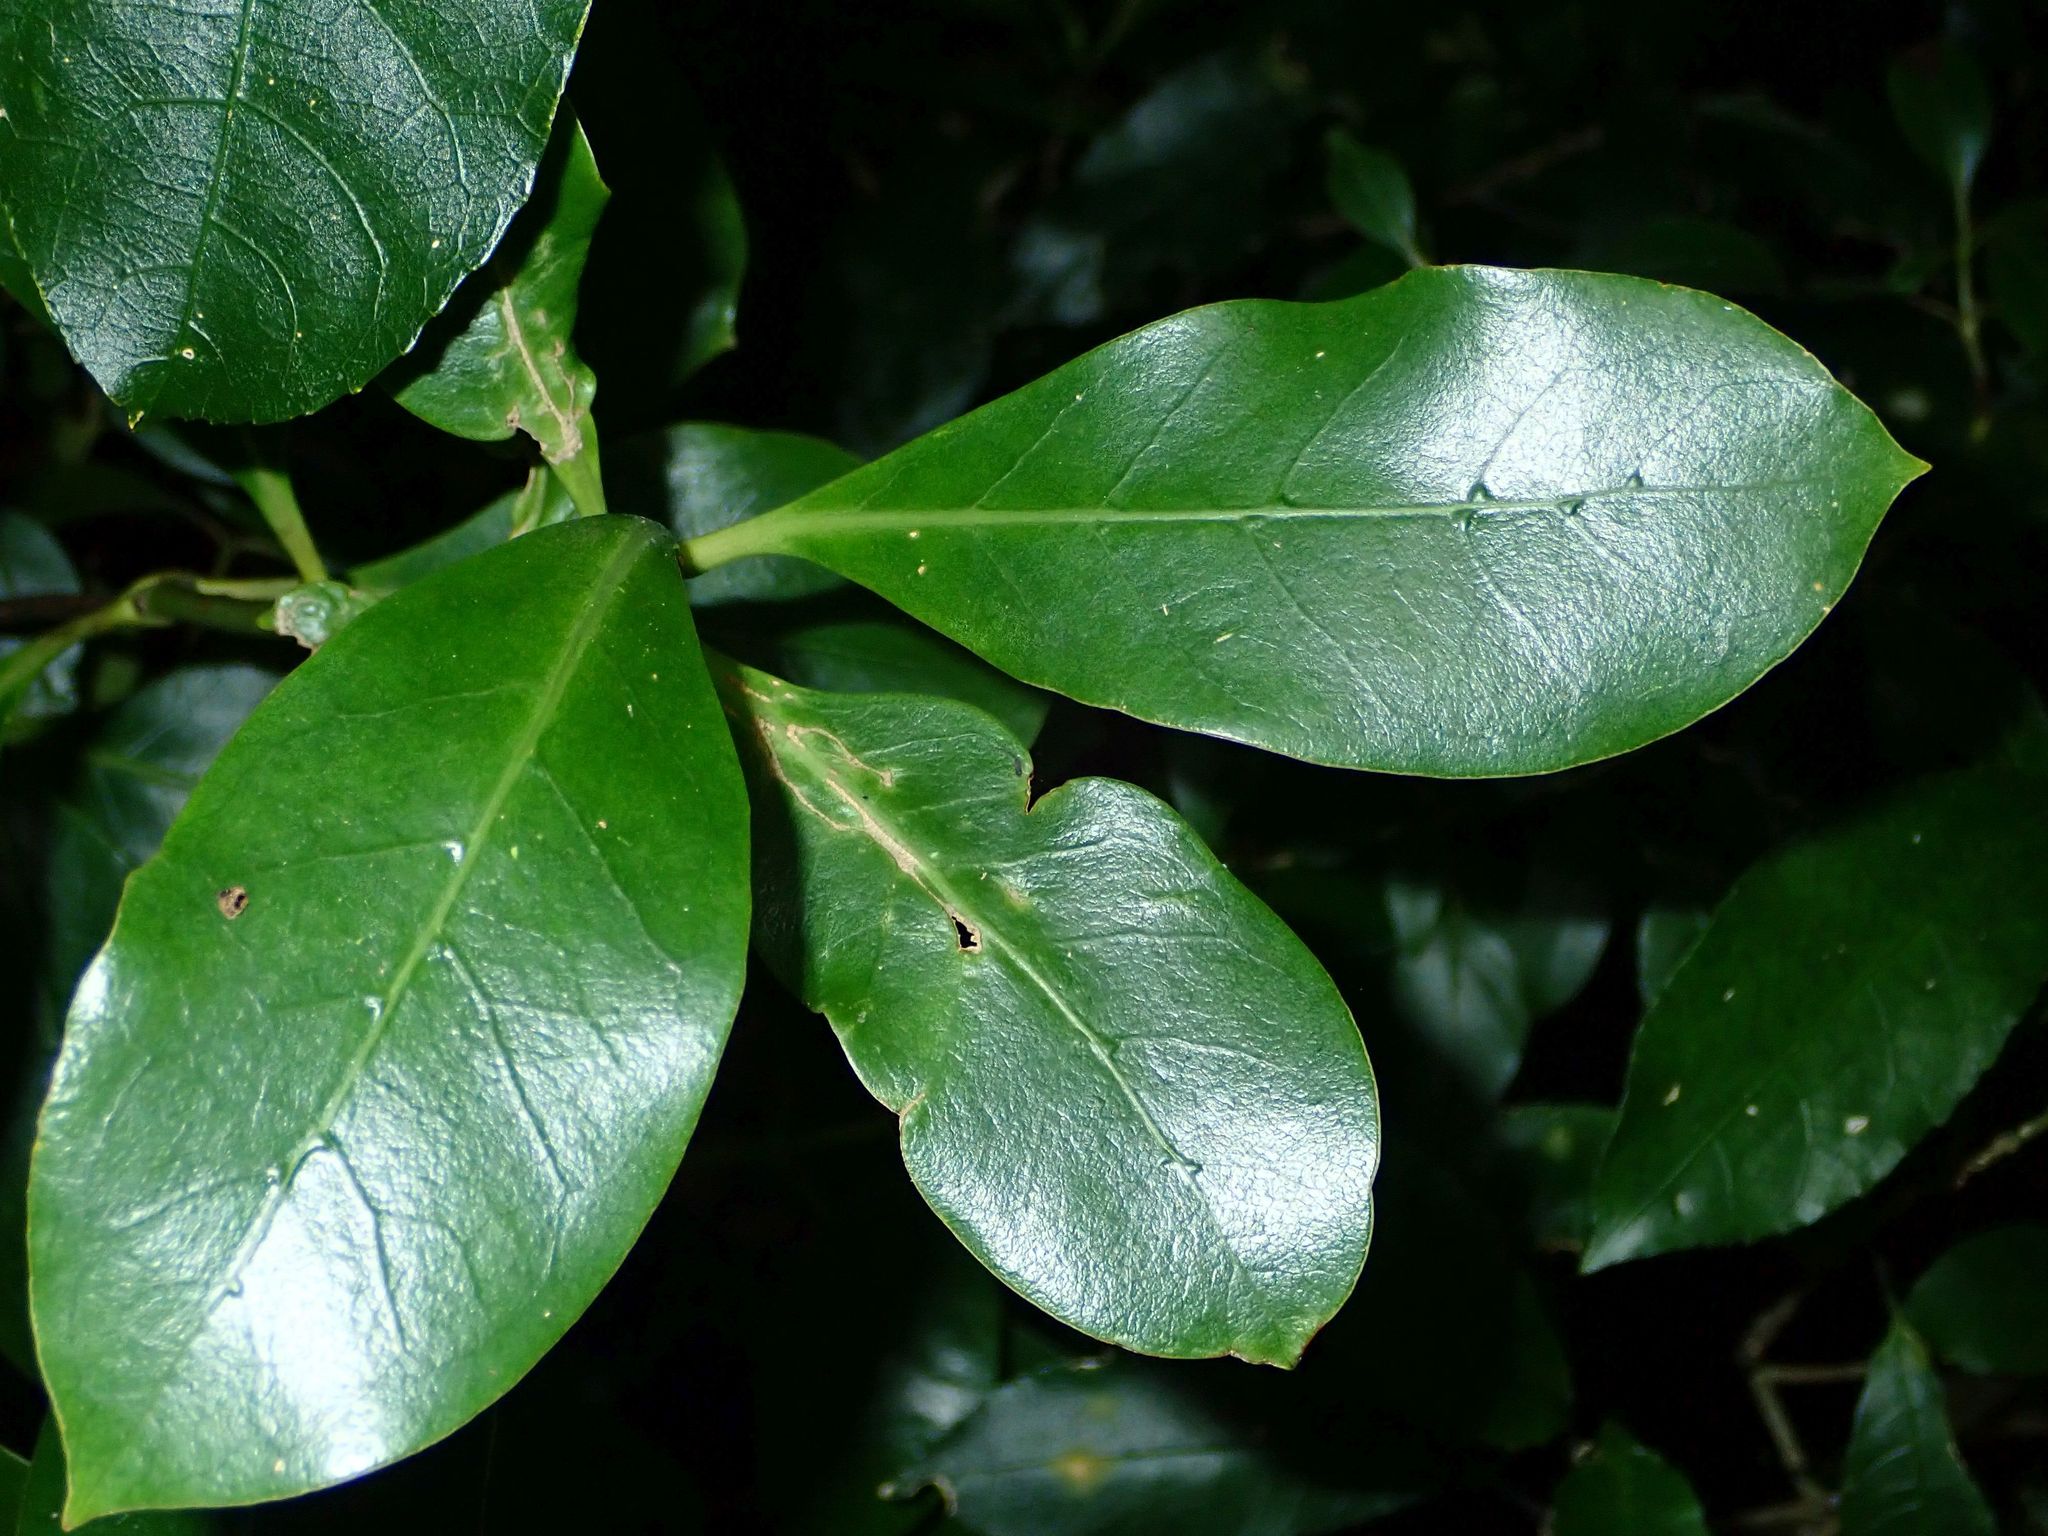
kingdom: Plantae
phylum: Tracheophyta
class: Magnoliopsida
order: Gentianales
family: Rubiaceae
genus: Coprosma
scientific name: Coprosma lucida
